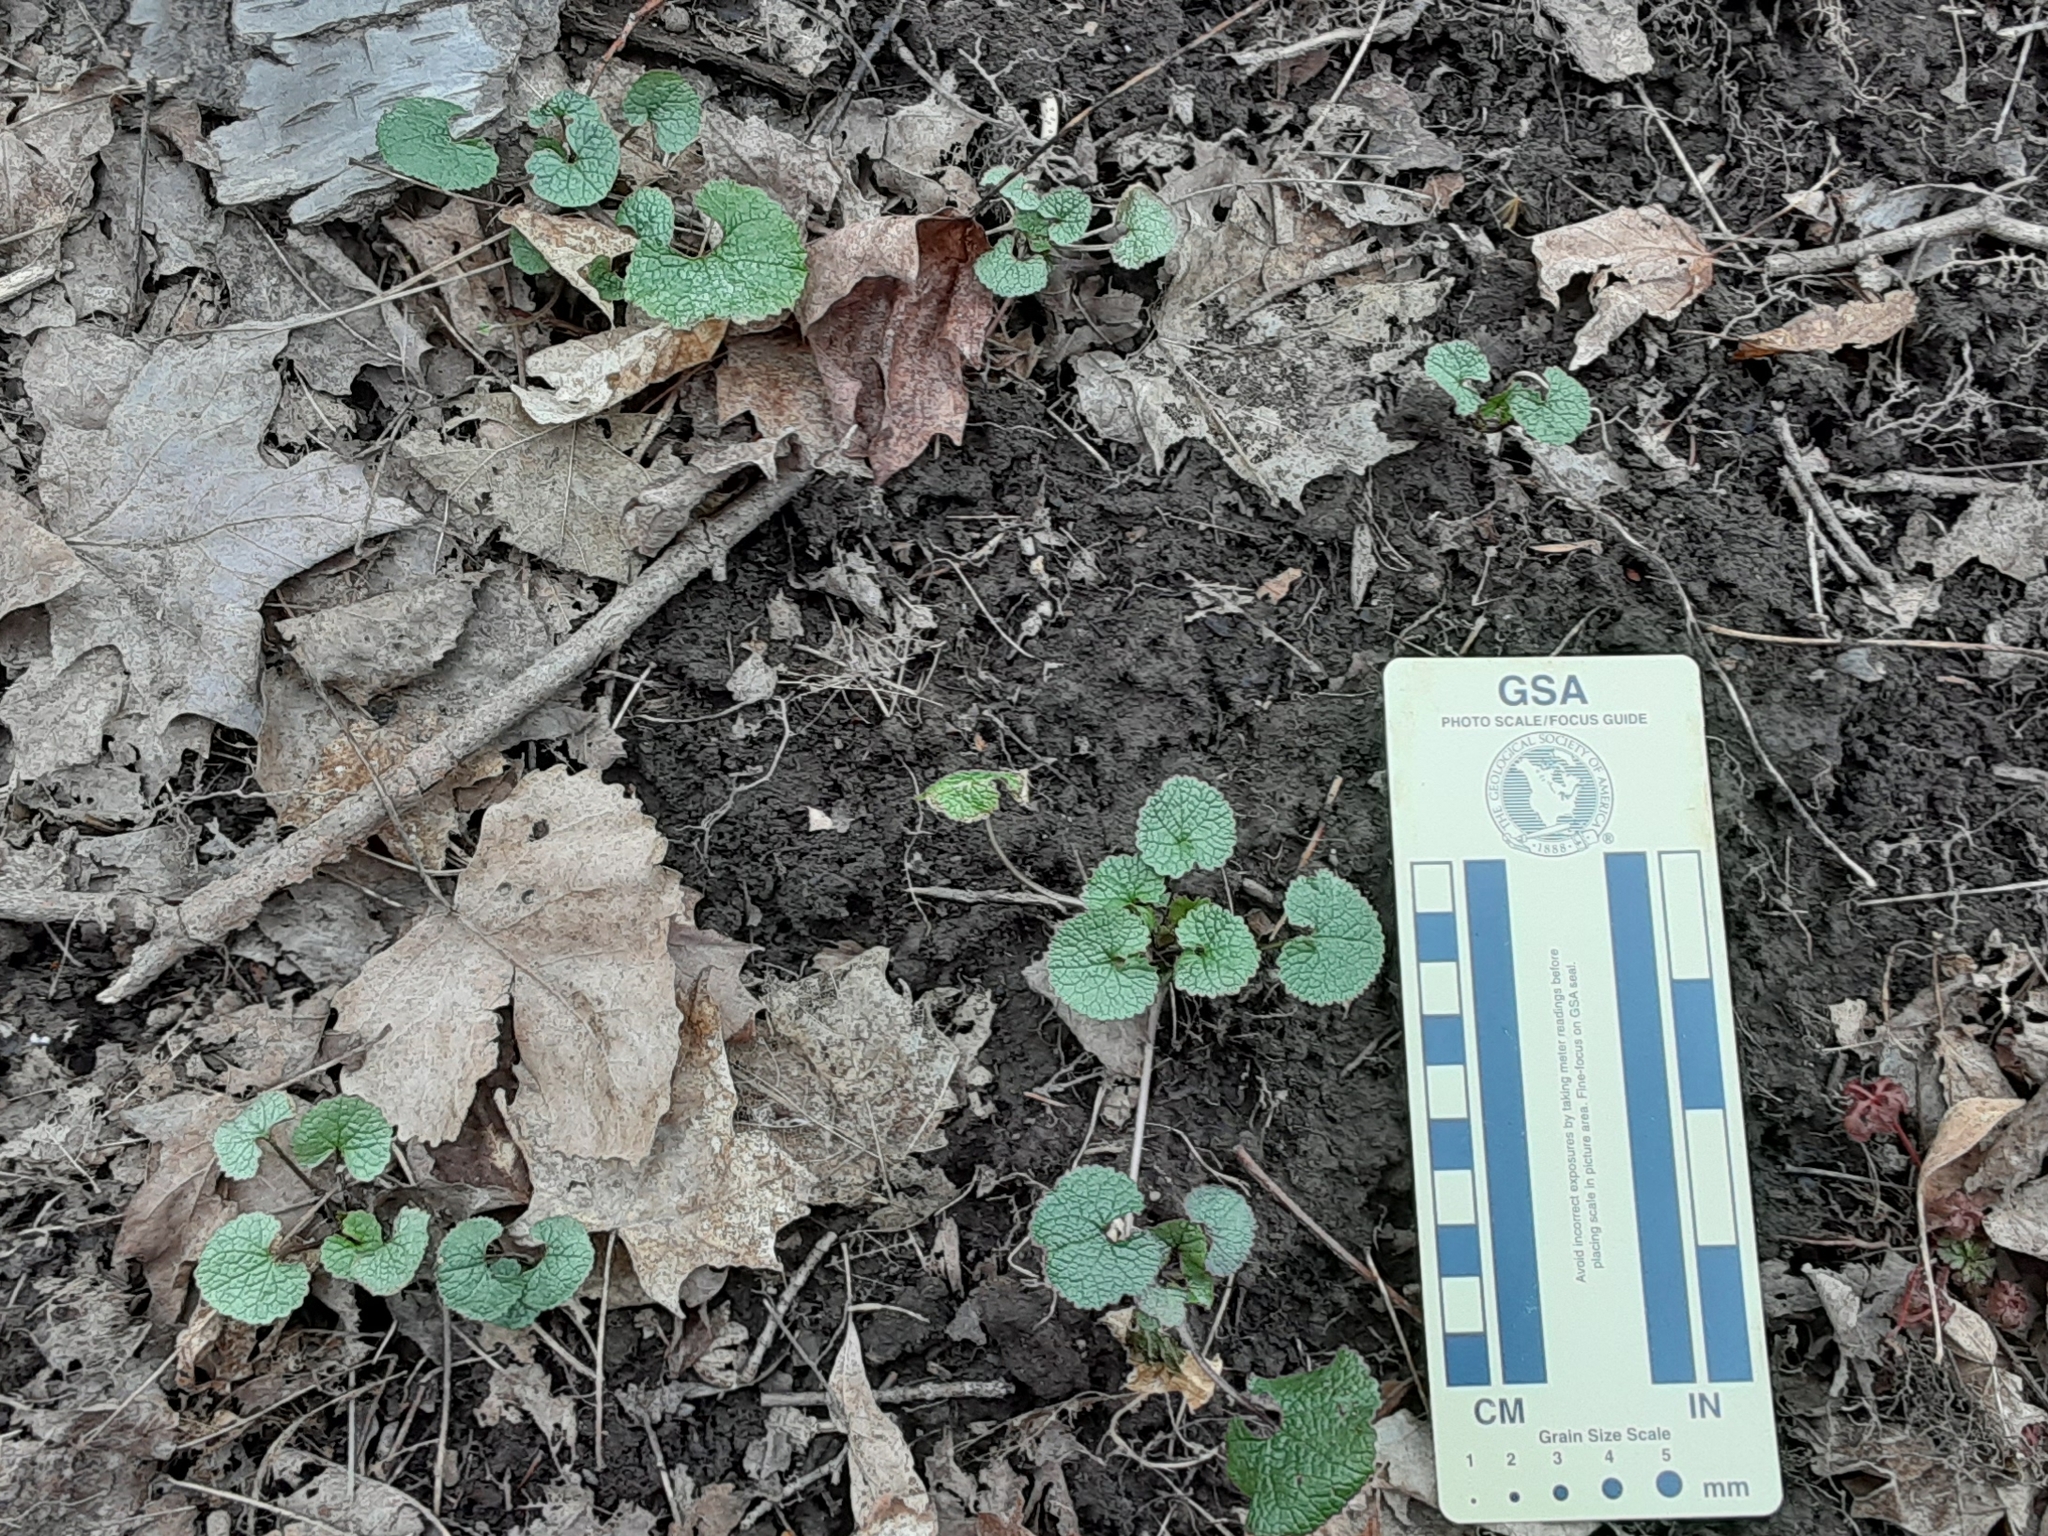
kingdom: Plantae
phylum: Tracheophyta
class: Magnoliopsida
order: Brassicales
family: Brassicaceae
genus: Alliaria
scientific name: Alliaria petiolata
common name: Garlic mustard
